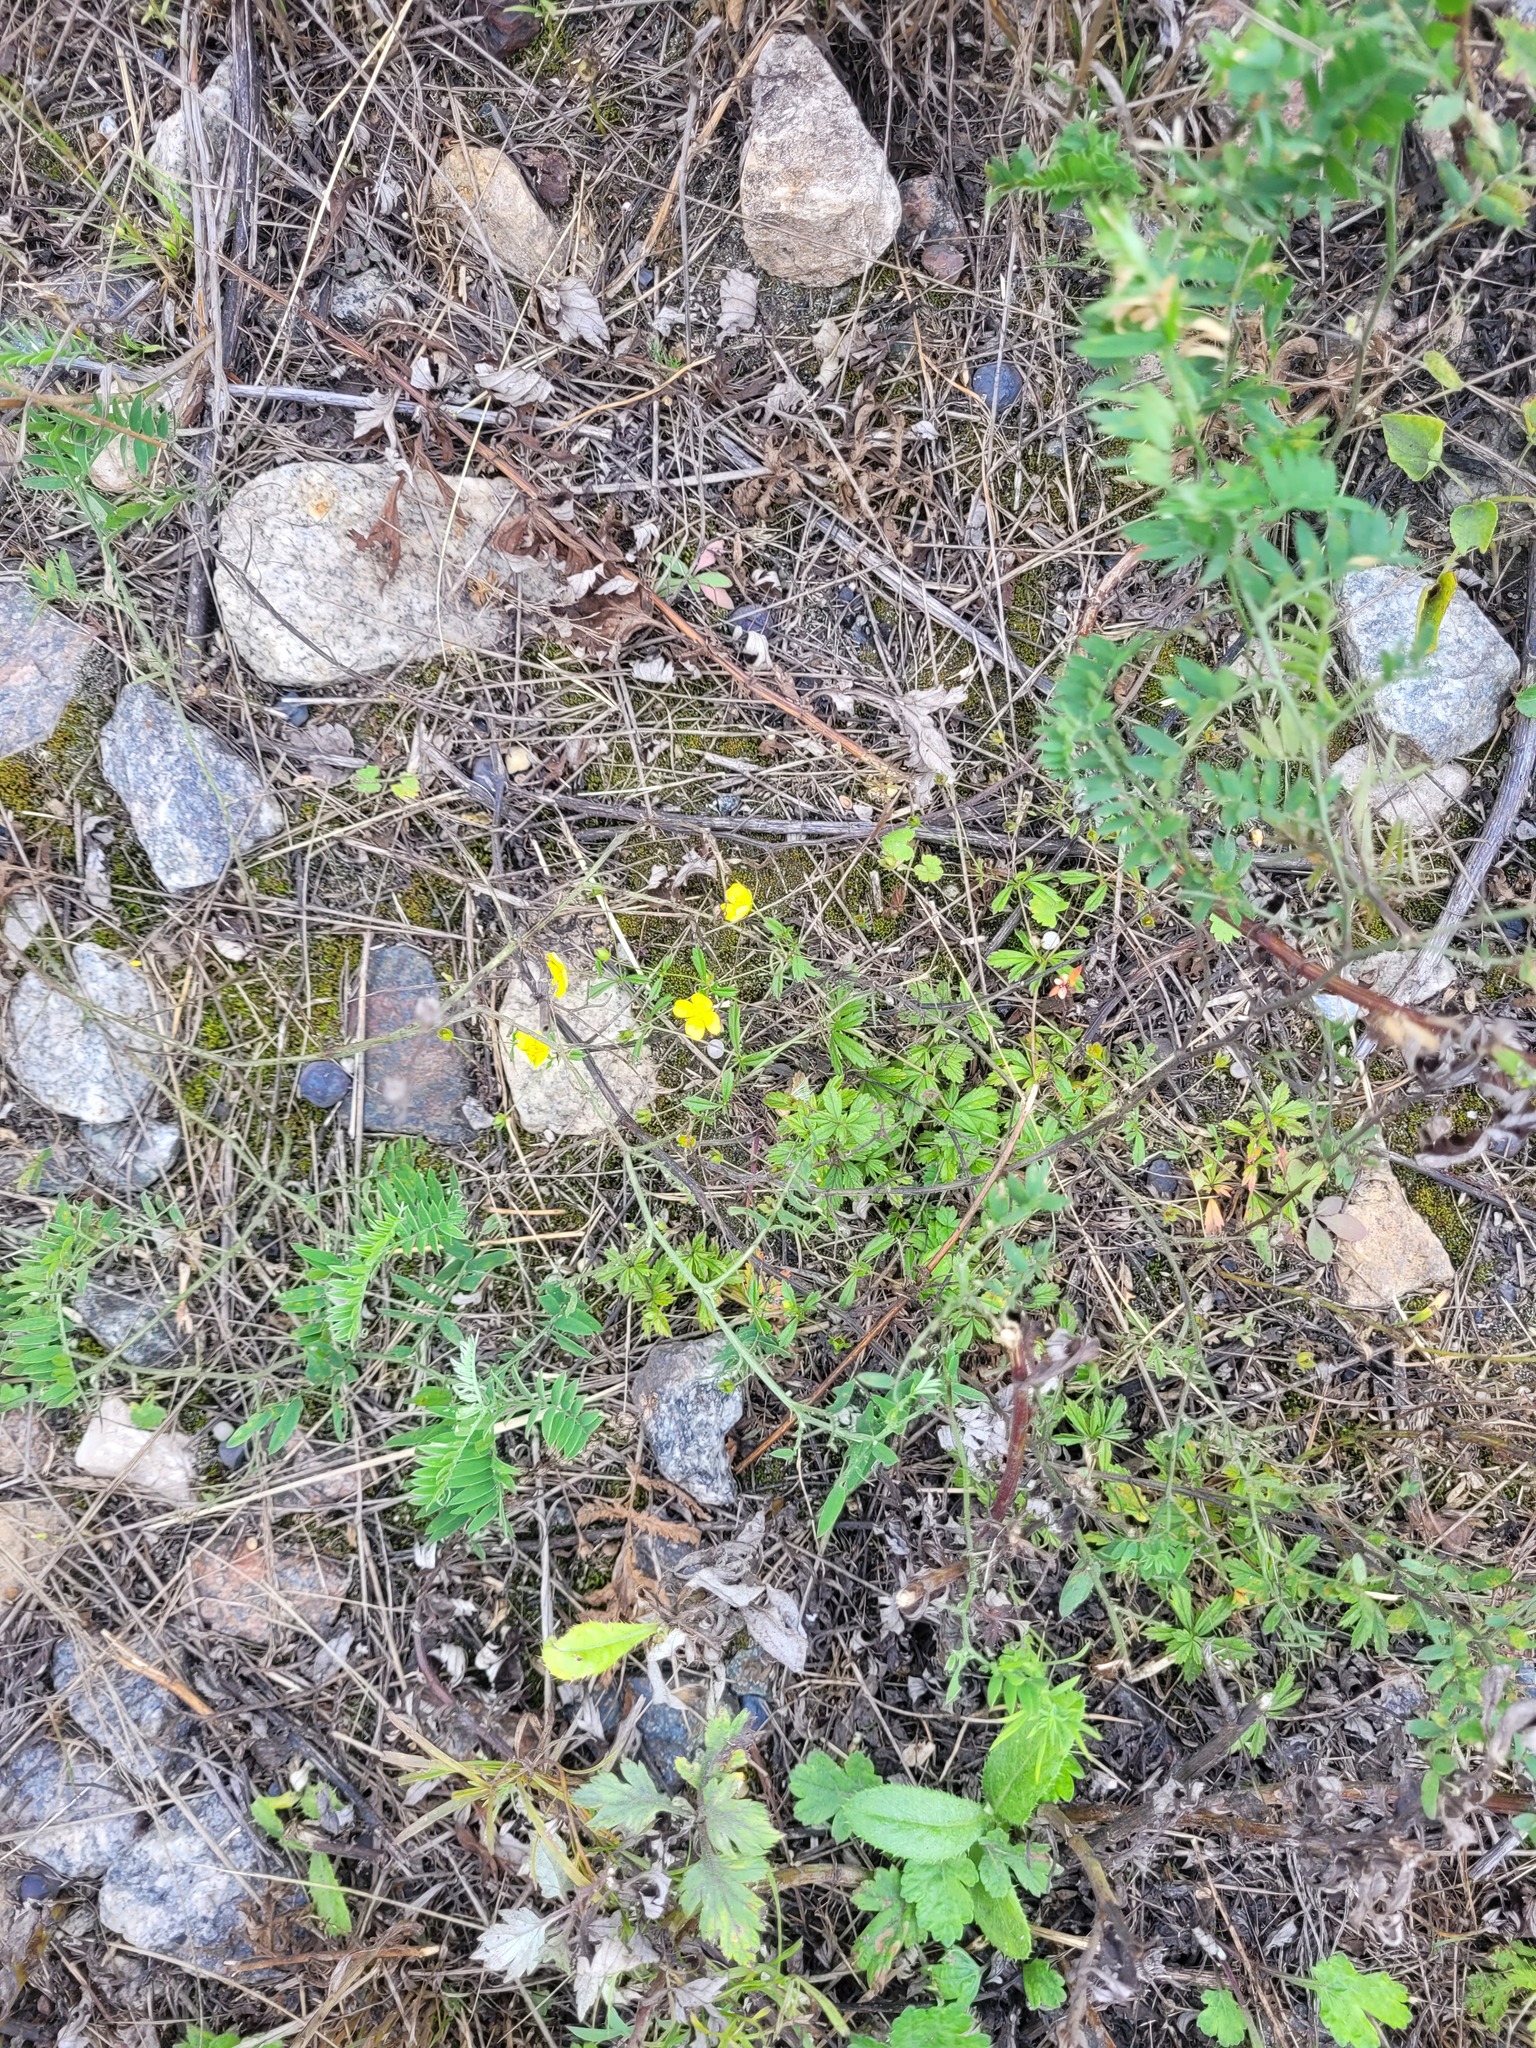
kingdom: Plantae
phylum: Tracheophyta
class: Magnoliopsida
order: Rosales
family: Rosaceae
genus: Potentilla
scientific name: Potentilla erecta
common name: Tormentil
